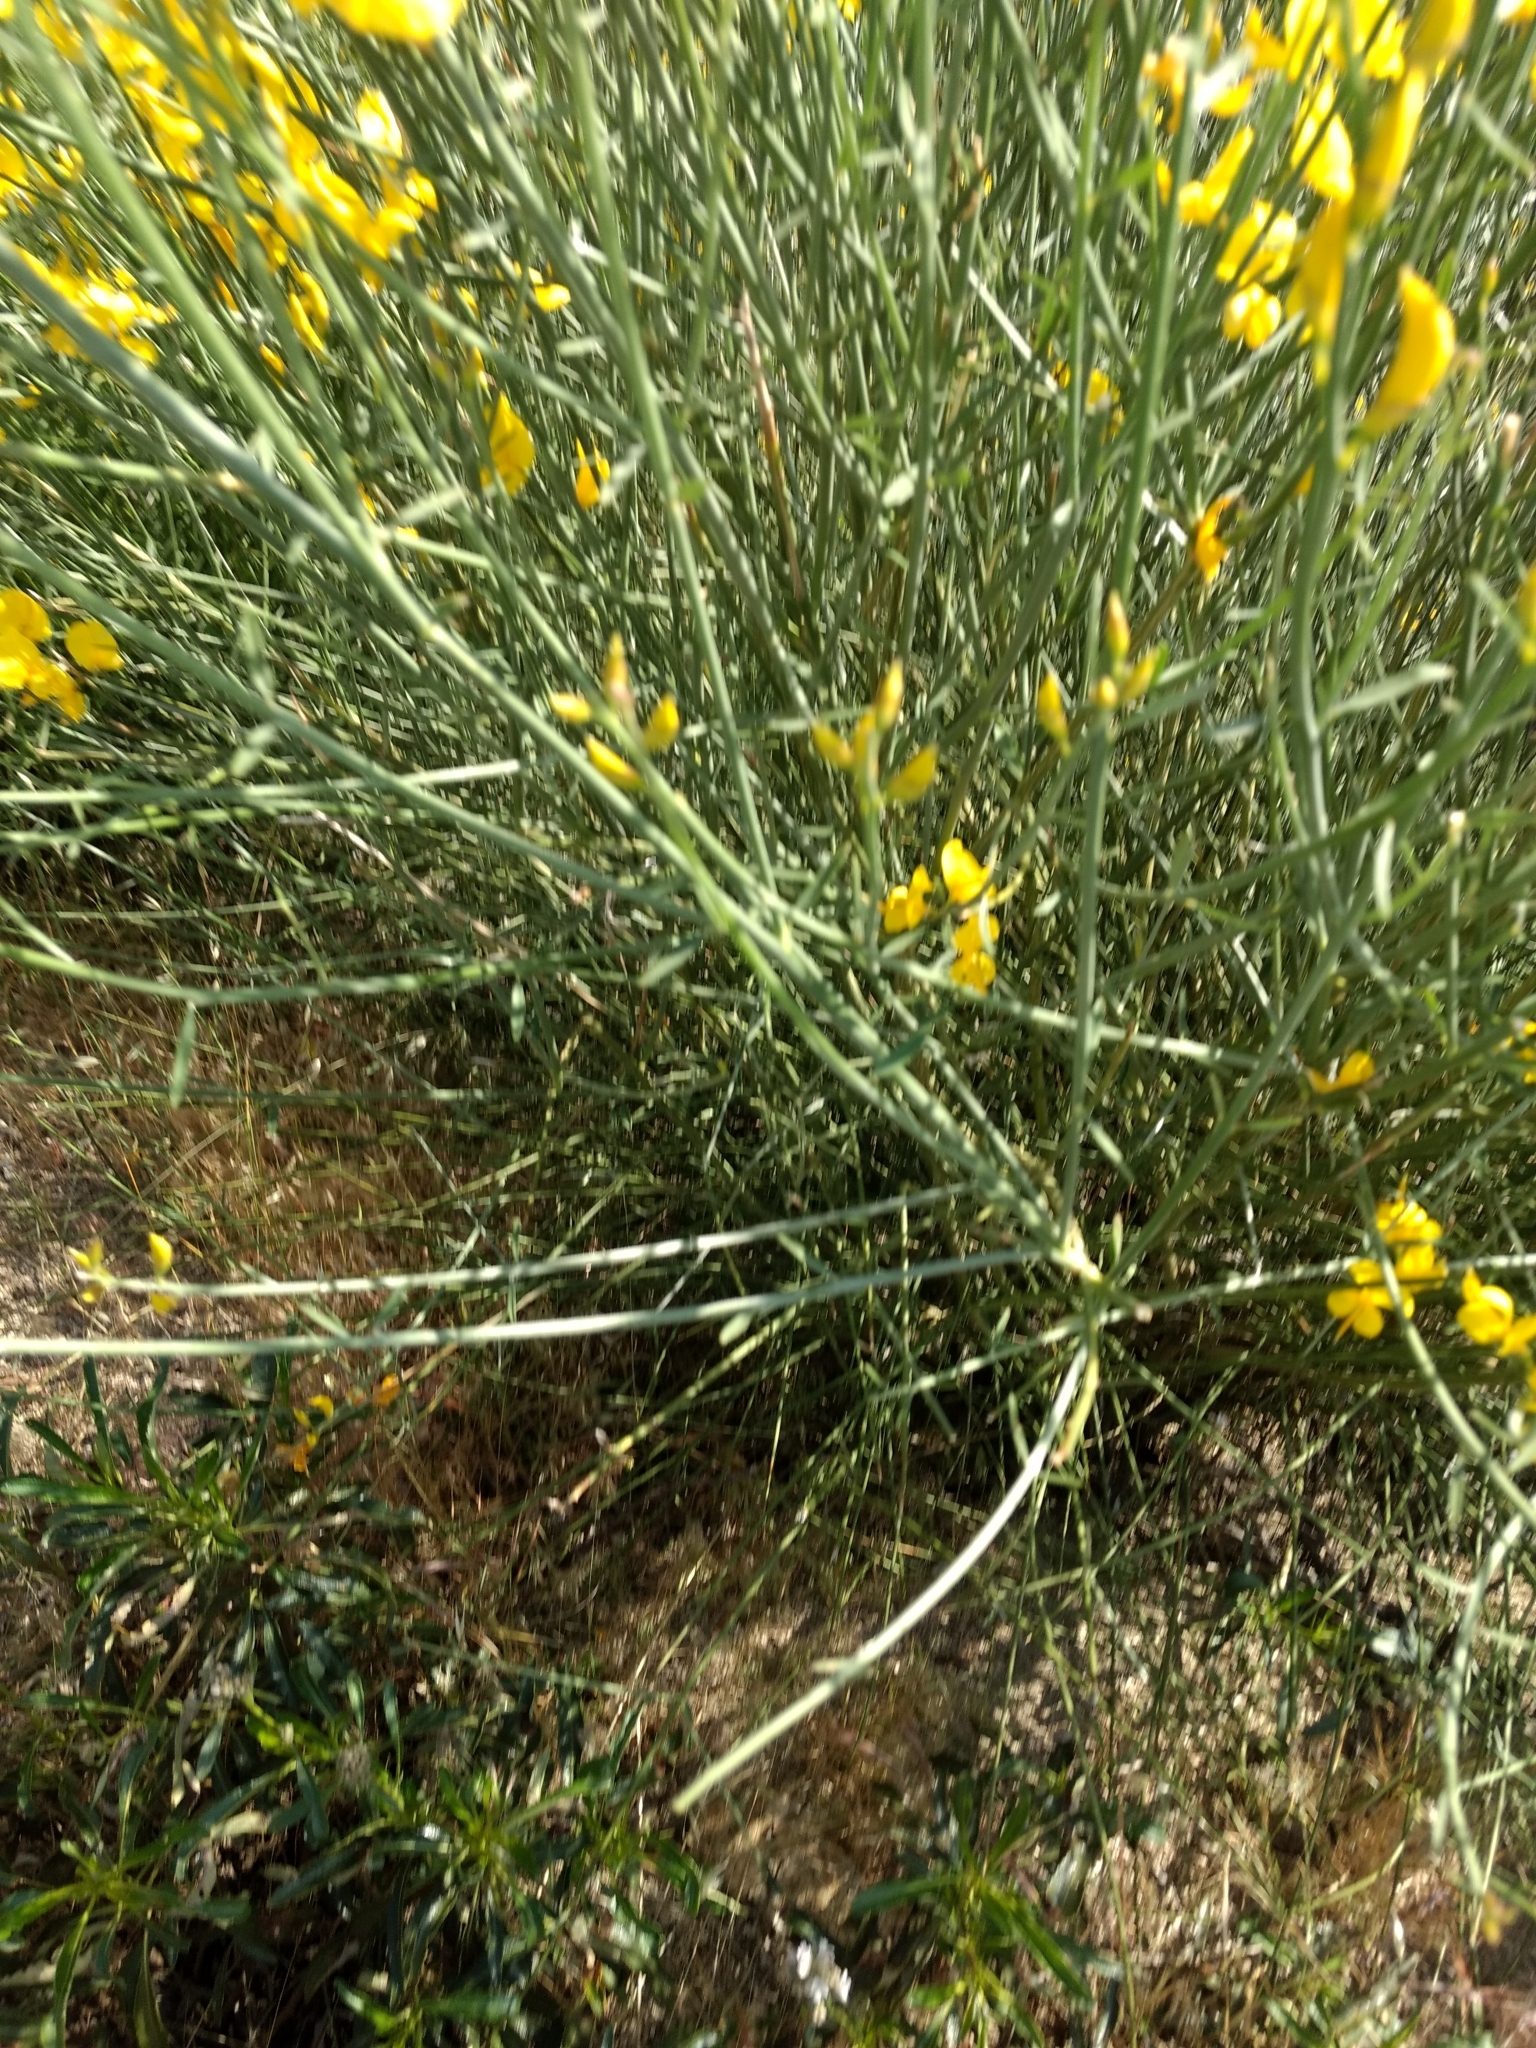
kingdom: Plantae
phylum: Tracheophyta
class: Magnoliopsida
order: Fabales
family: Fabaceae
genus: Spartium
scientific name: Spartium junceum
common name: Spanish broom
